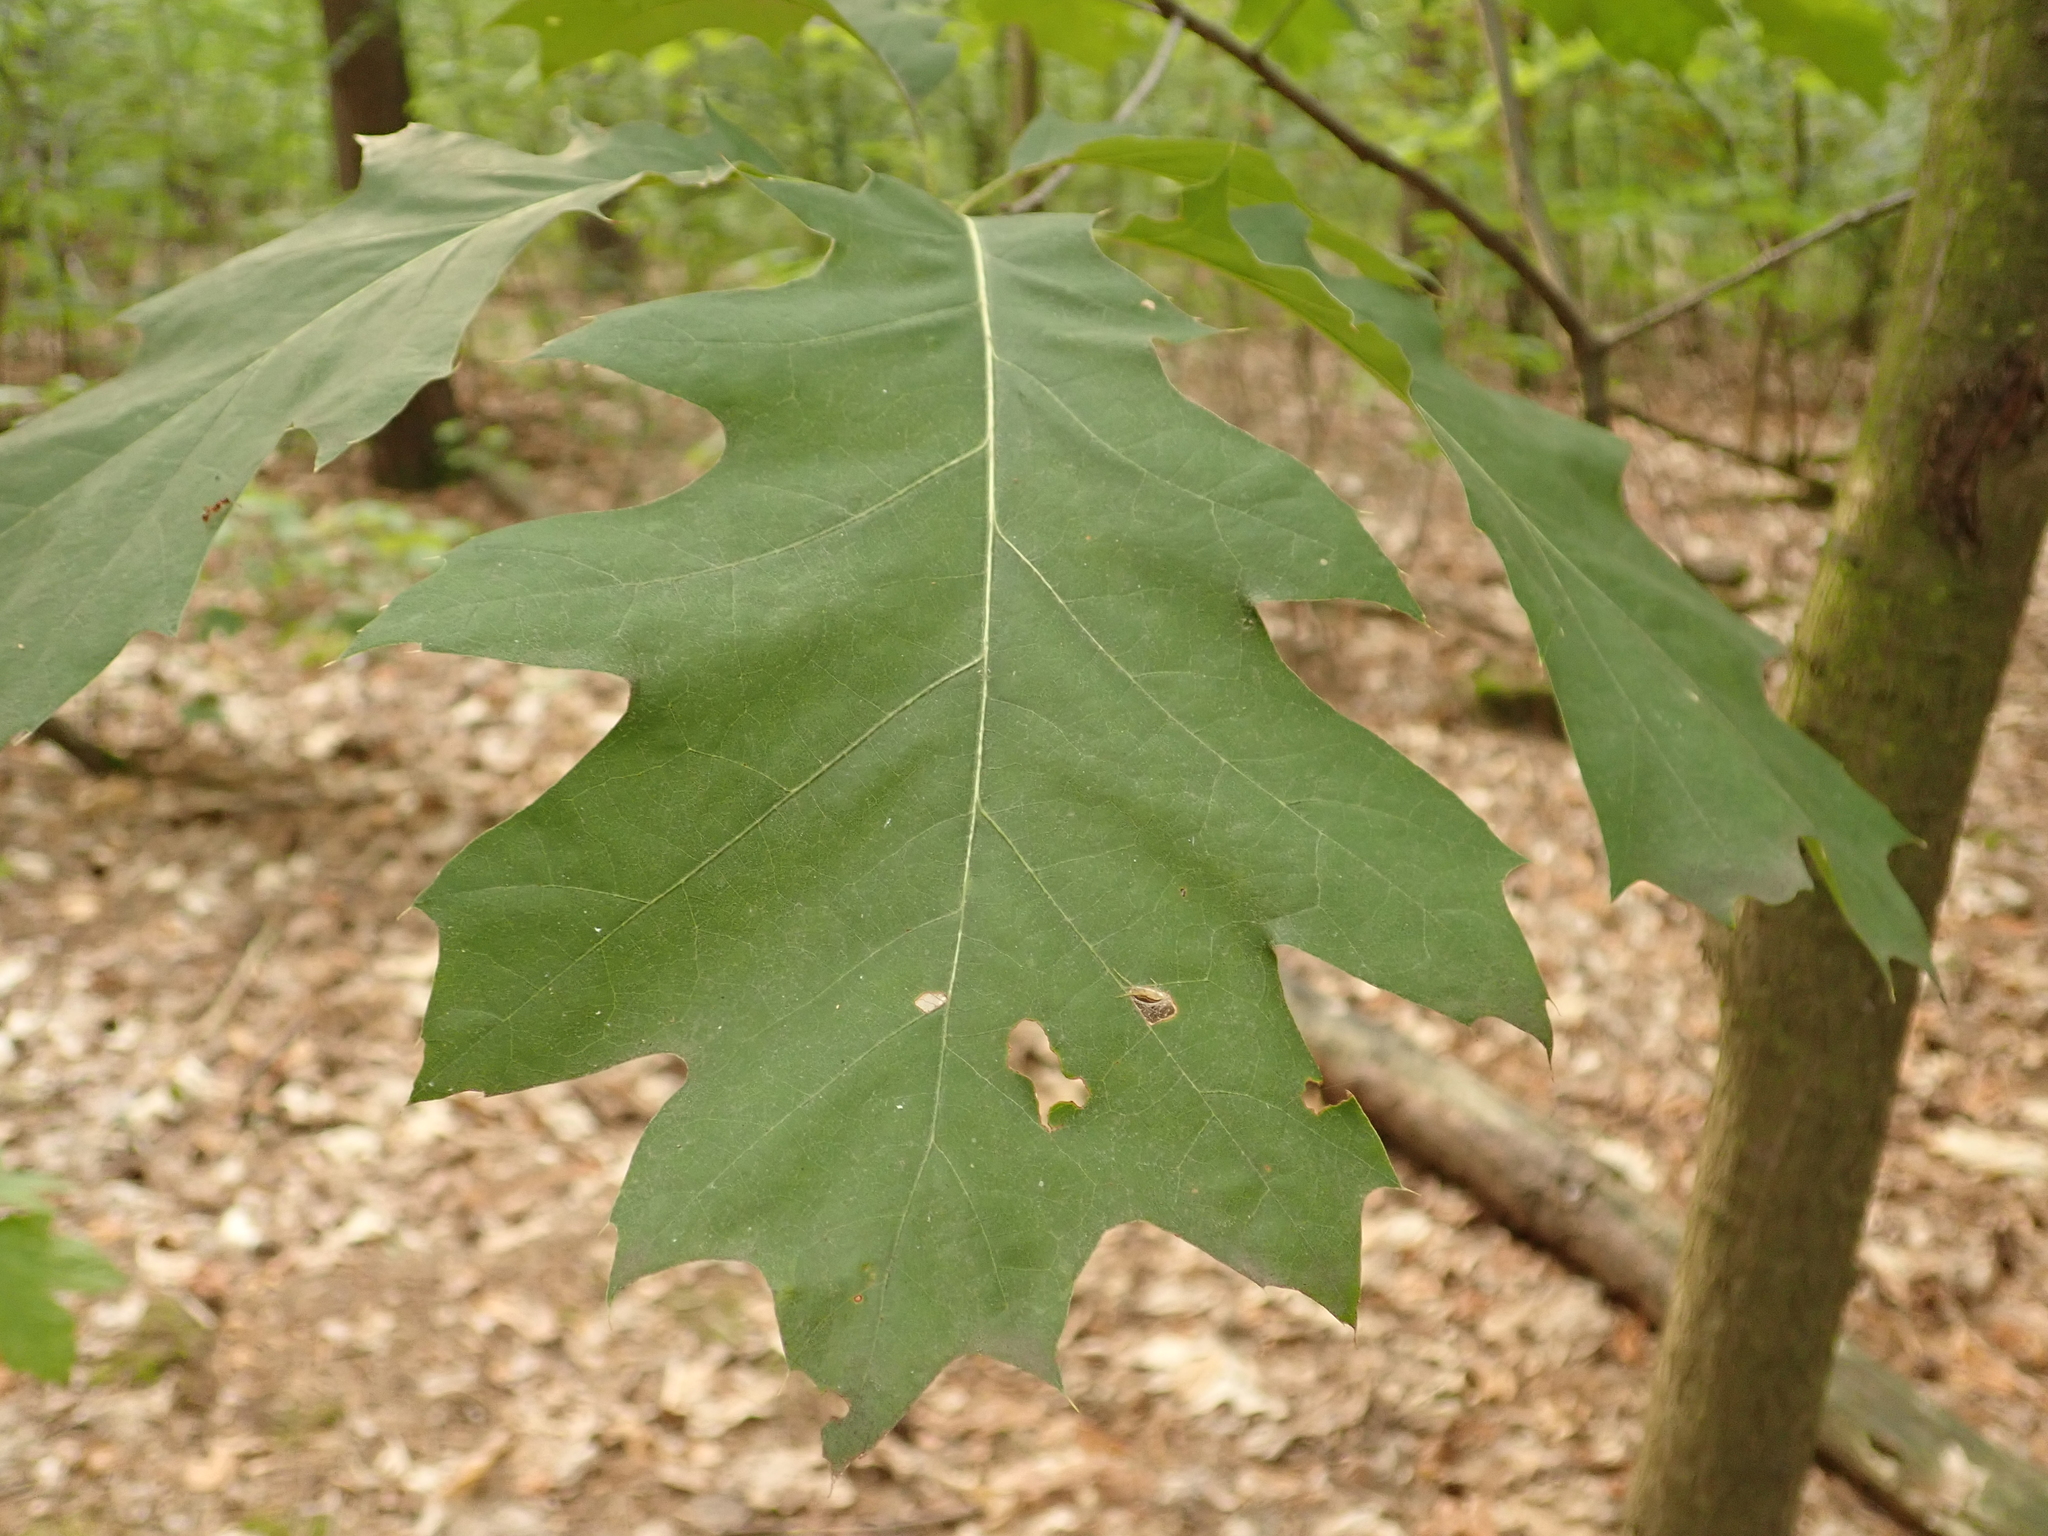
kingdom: Plantae
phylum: Tracheophyta
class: Magnoliopsida
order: Fagales
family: Fagaceae
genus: Quercus
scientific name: Quercus rubra
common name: Red oak
